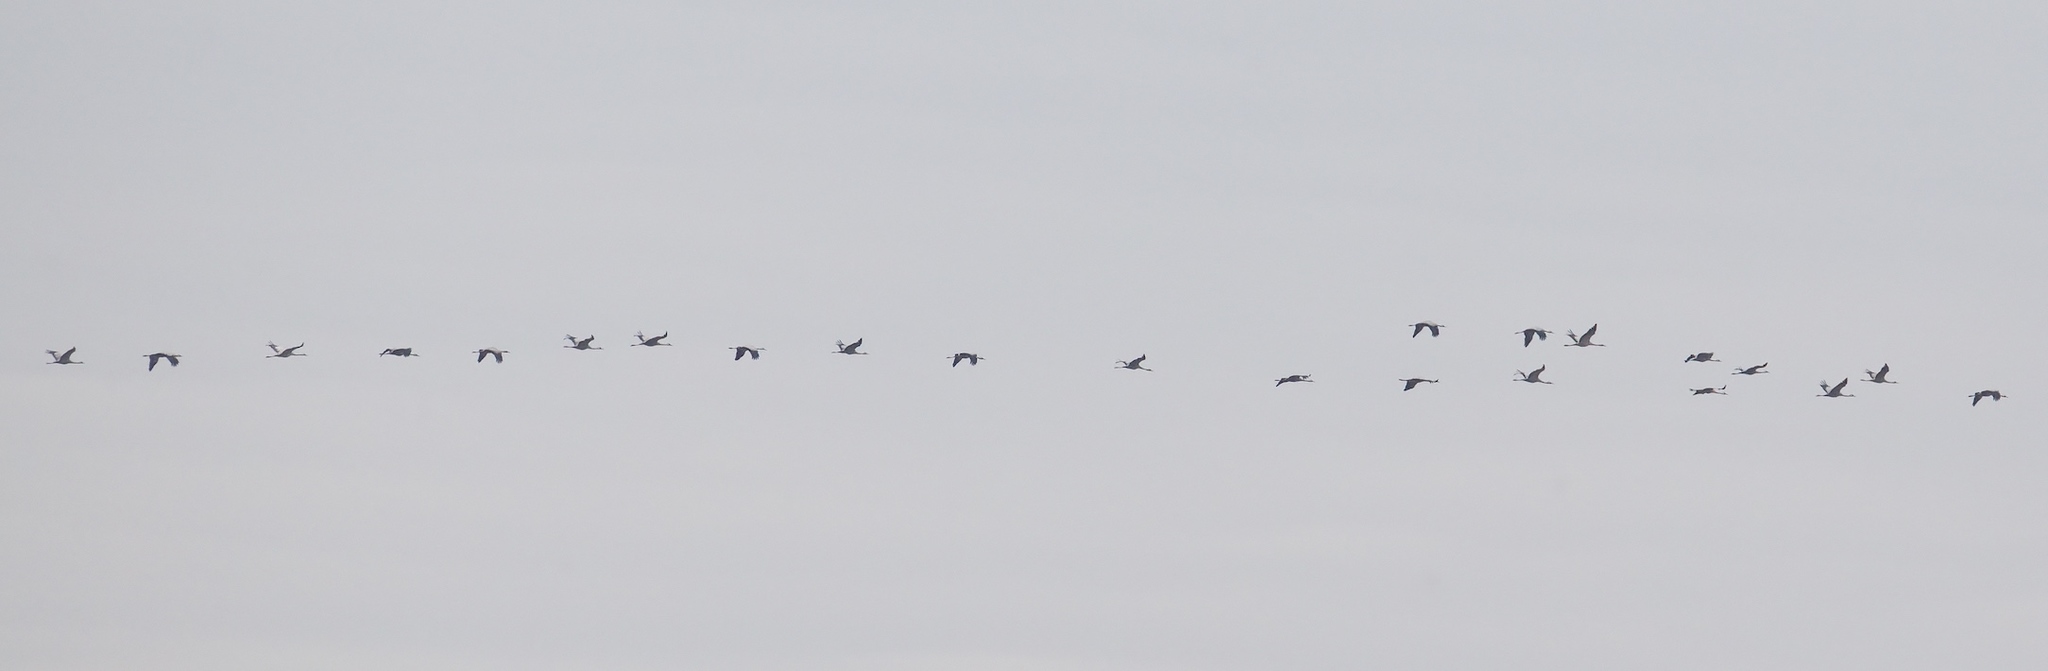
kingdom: Animalia
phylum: Chordata
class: Aves
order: Gruiformes
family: Gruidae
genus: Grus
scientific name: Grus grus
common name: Common crane
